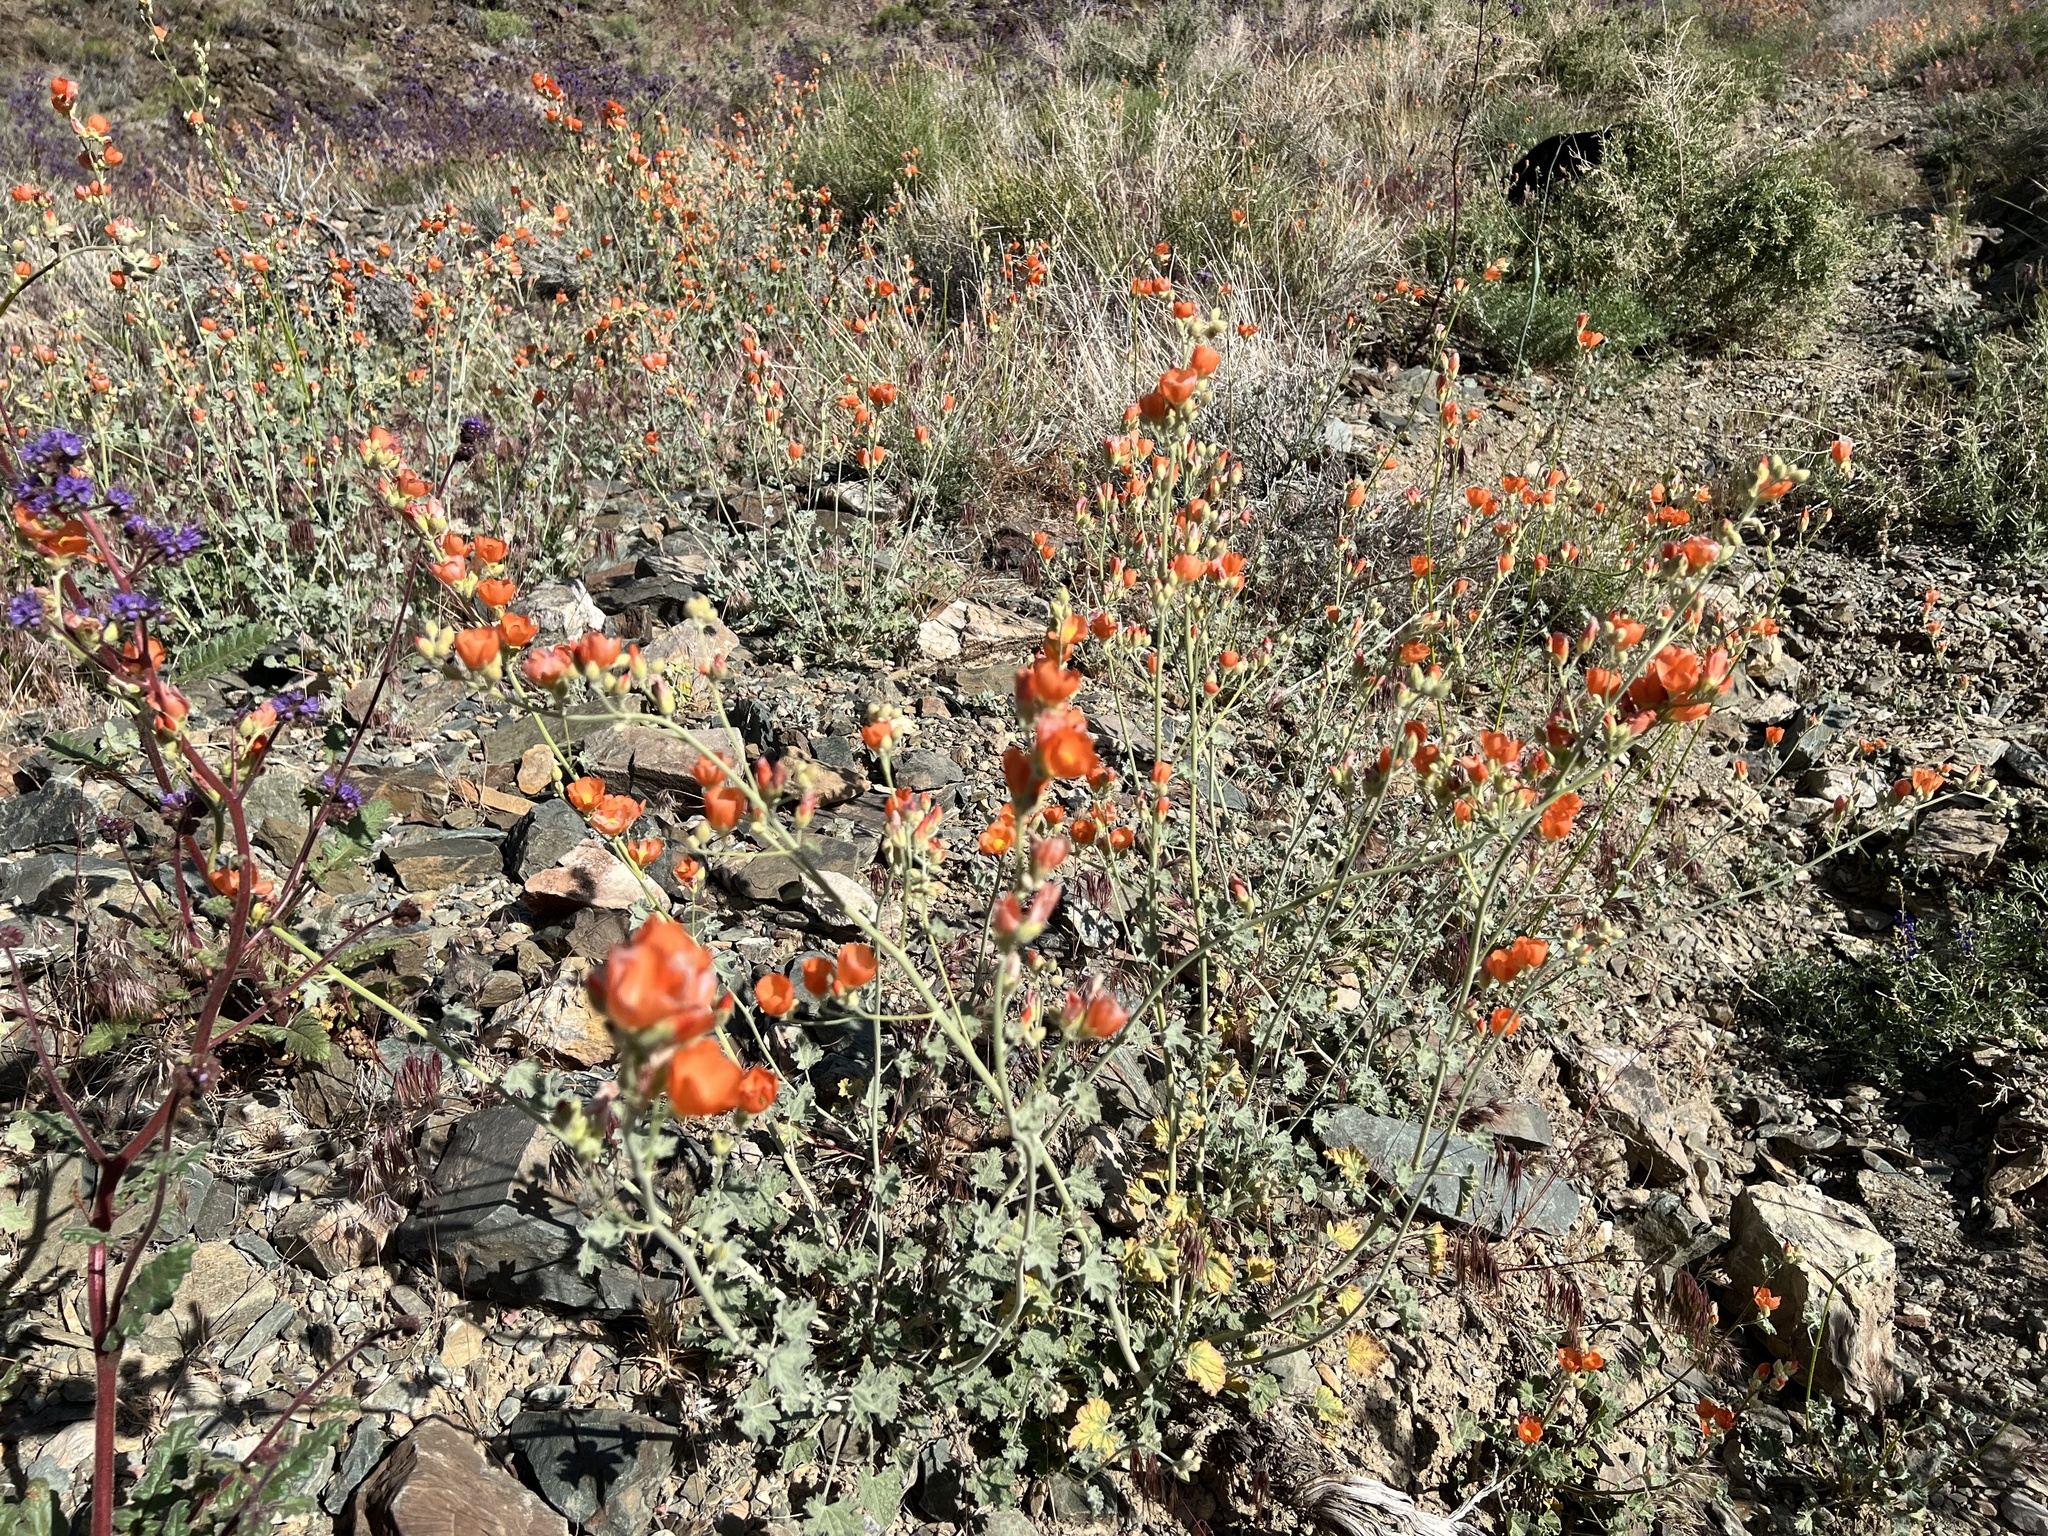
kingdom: Plantae
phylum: Tracheophyta
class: Magnoliopsida
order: Malvales
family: Malvaceae
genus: Sphaeralcea
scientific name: Sphaeralcea ambigua
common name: Apricot globe-mallow
